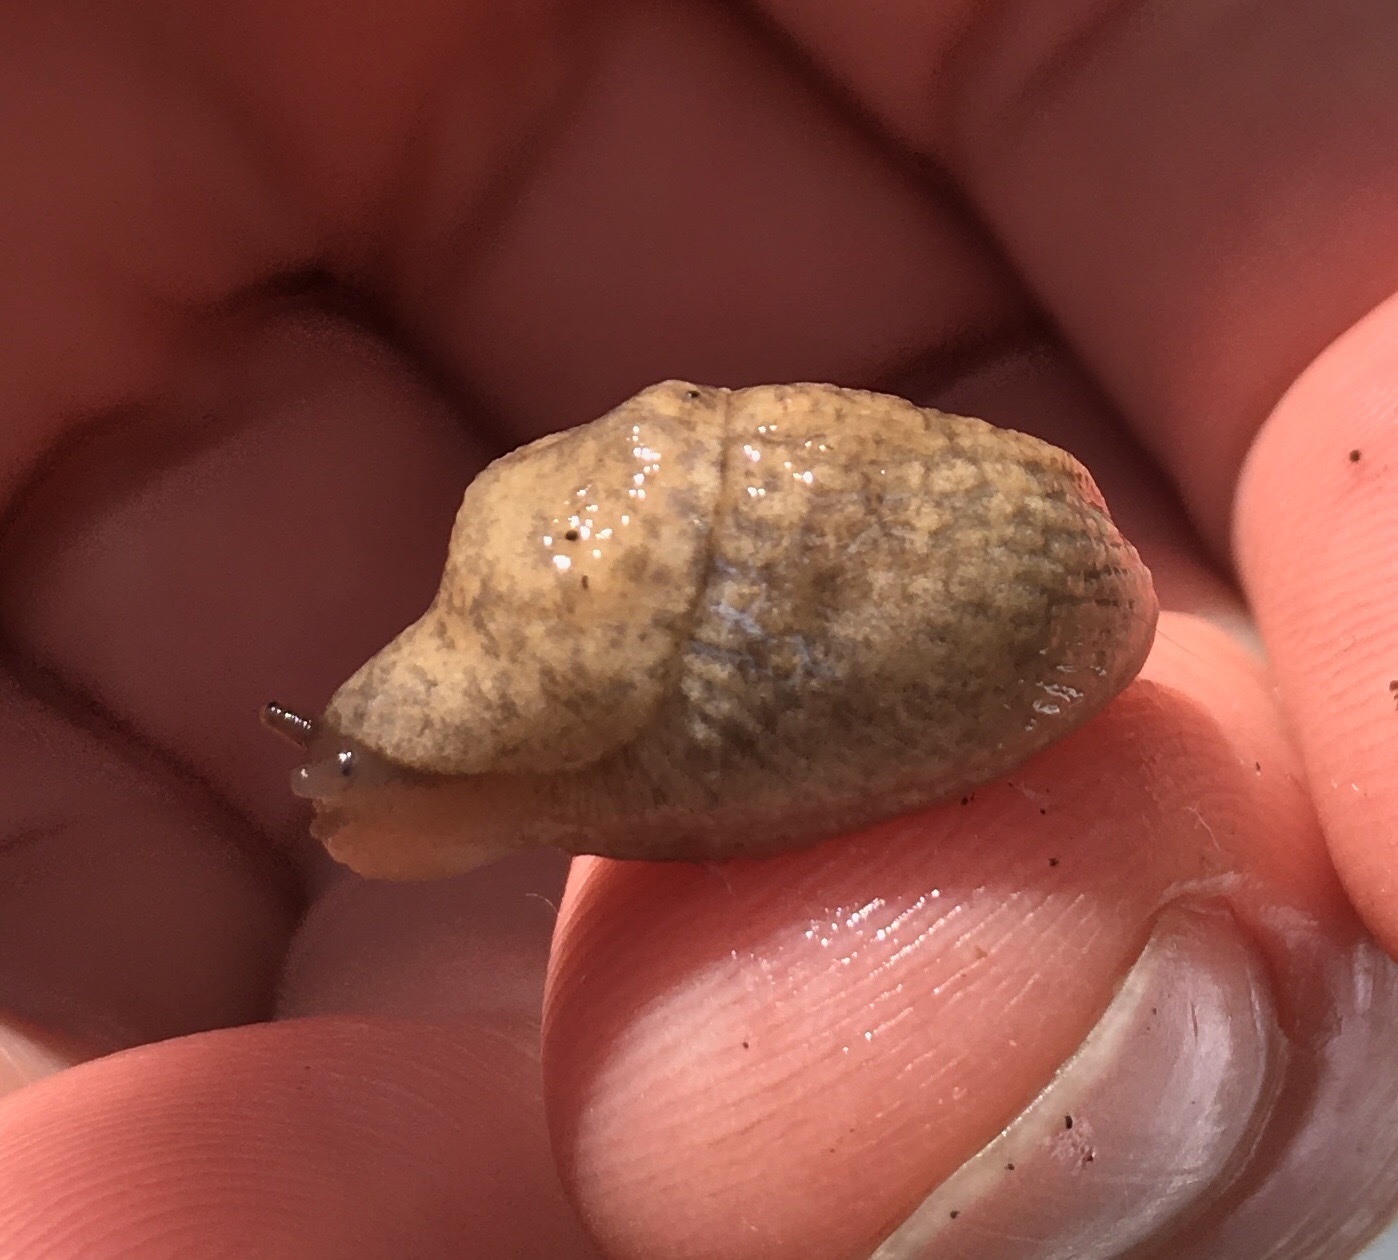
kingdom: Animalia
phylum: Mollusca
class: Gastropoda
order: Stylommatophora
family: Agriolimacidae
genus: Deroceras
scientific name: Deroceras reticulatum
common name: Gray field slug
